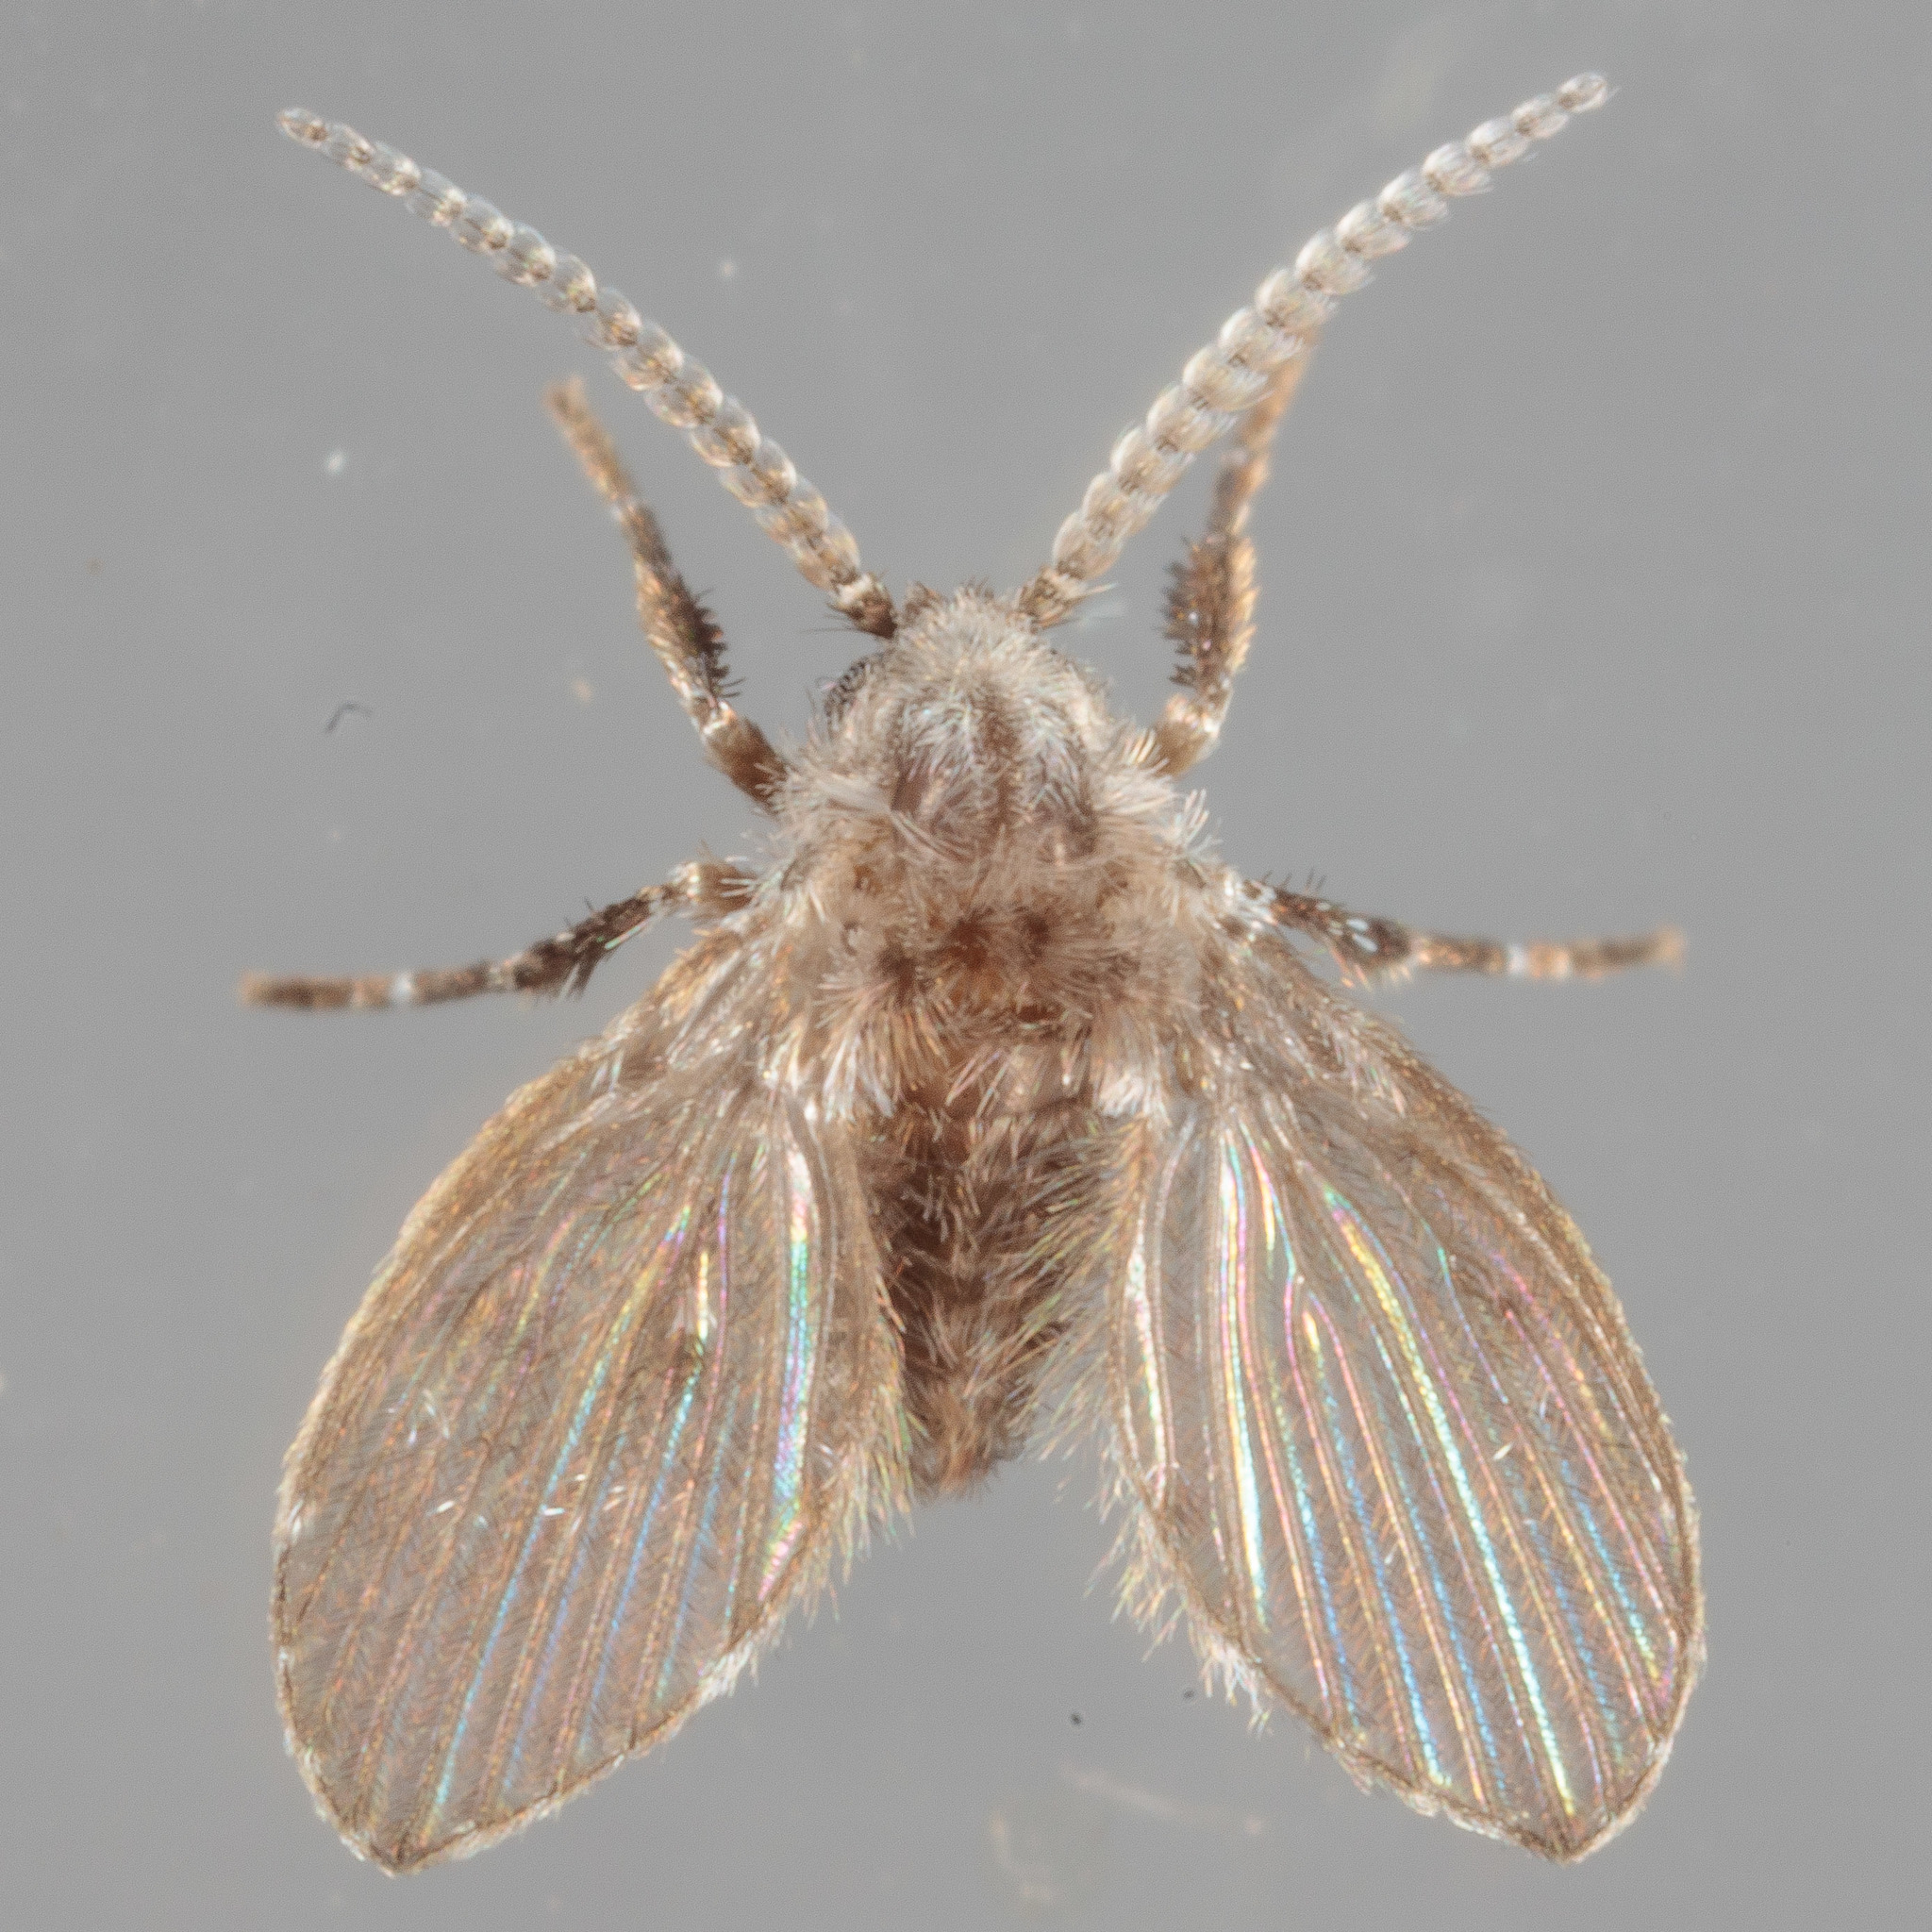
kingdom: Animalia
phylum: Arthropoda
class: Insecta
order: Diptera
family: Psychodidae
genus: Clogmia
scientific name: Clogmia albipunctatus
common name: White-spotted moth fly
